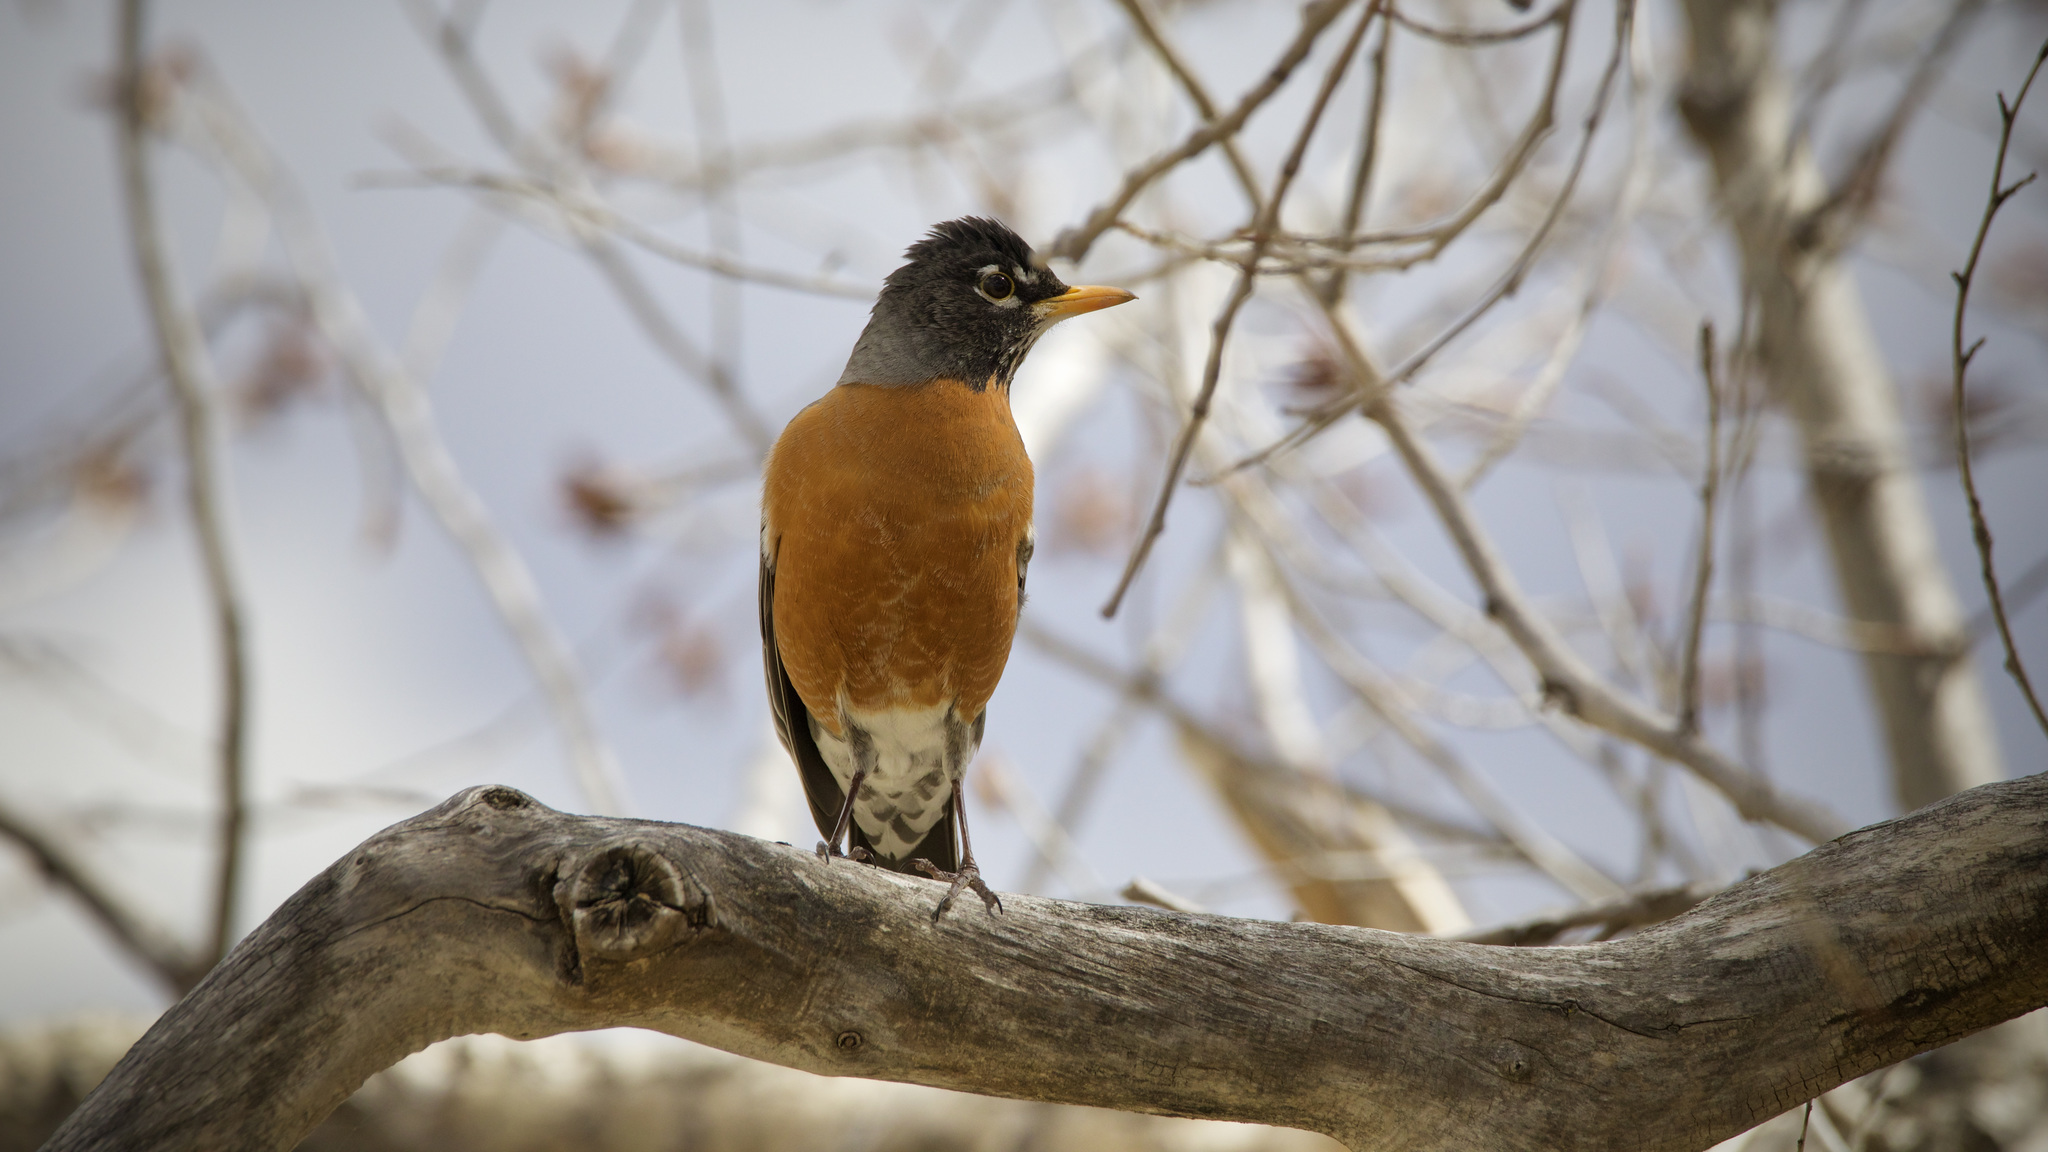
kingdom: Animalia
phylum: Chordata
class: Aves
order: Passeriformes
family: Turdidae
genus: Turdus
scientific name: Turdus migratorius
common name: American robin
